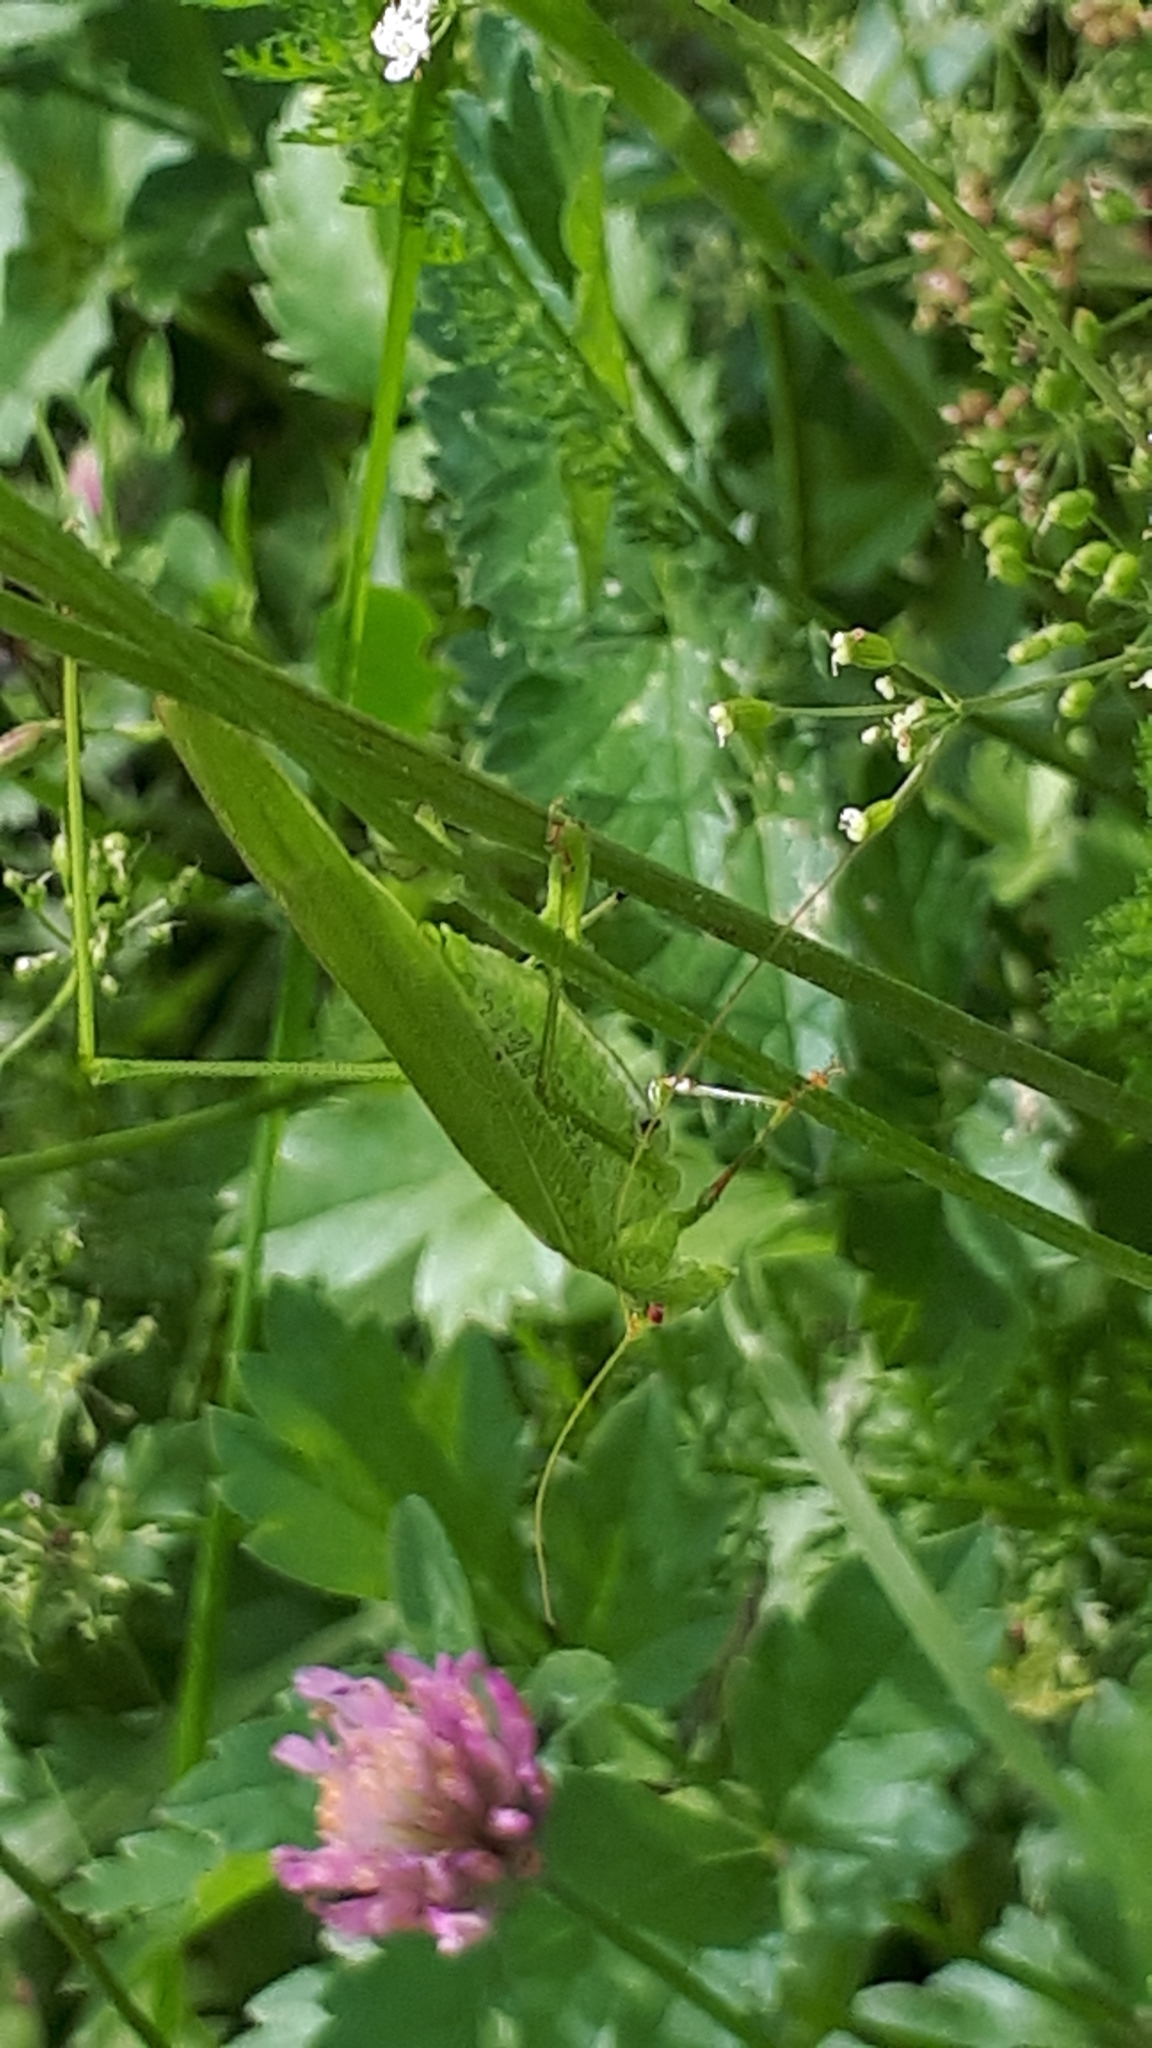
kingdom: Animalia
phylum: Arthropoda
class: Insecta
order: Orthoptera
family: Tettigoniidae
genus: Phaneroptera
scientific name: Phaneroptera falcata
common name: Sickle-bearing bush-cricket
